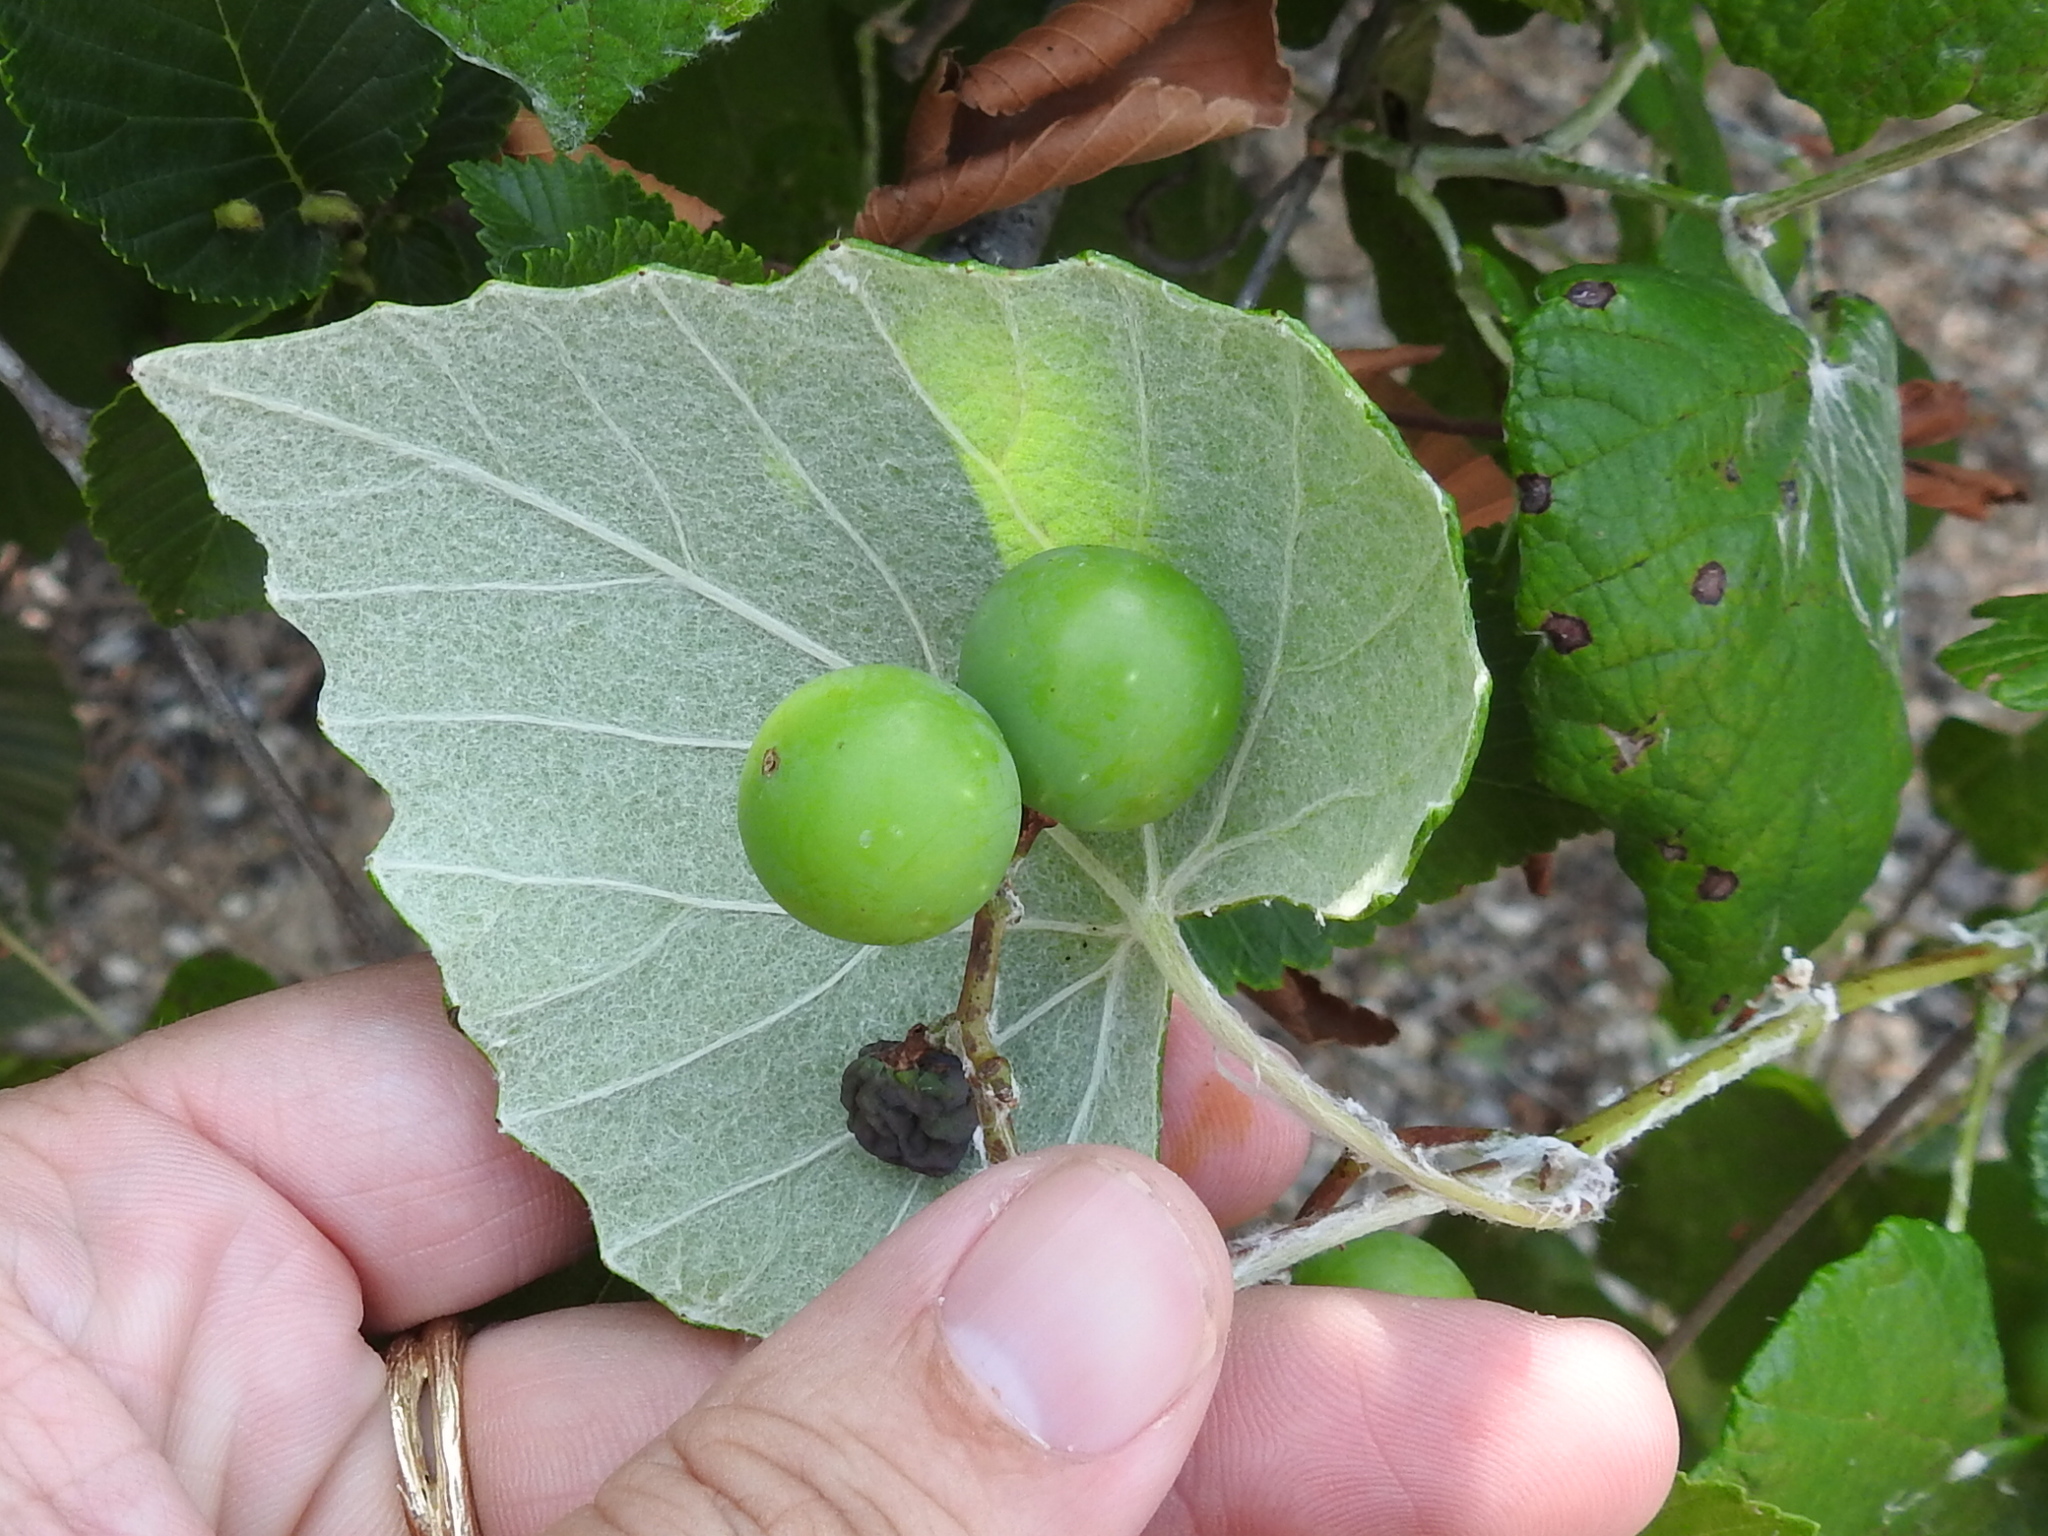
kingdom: Plantae
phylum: Tracheophyta
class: Magnoliopsida
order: Vitales
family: Vitaceae
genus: Vitis
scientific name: Vitis mustangensis
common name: Mustang grape
